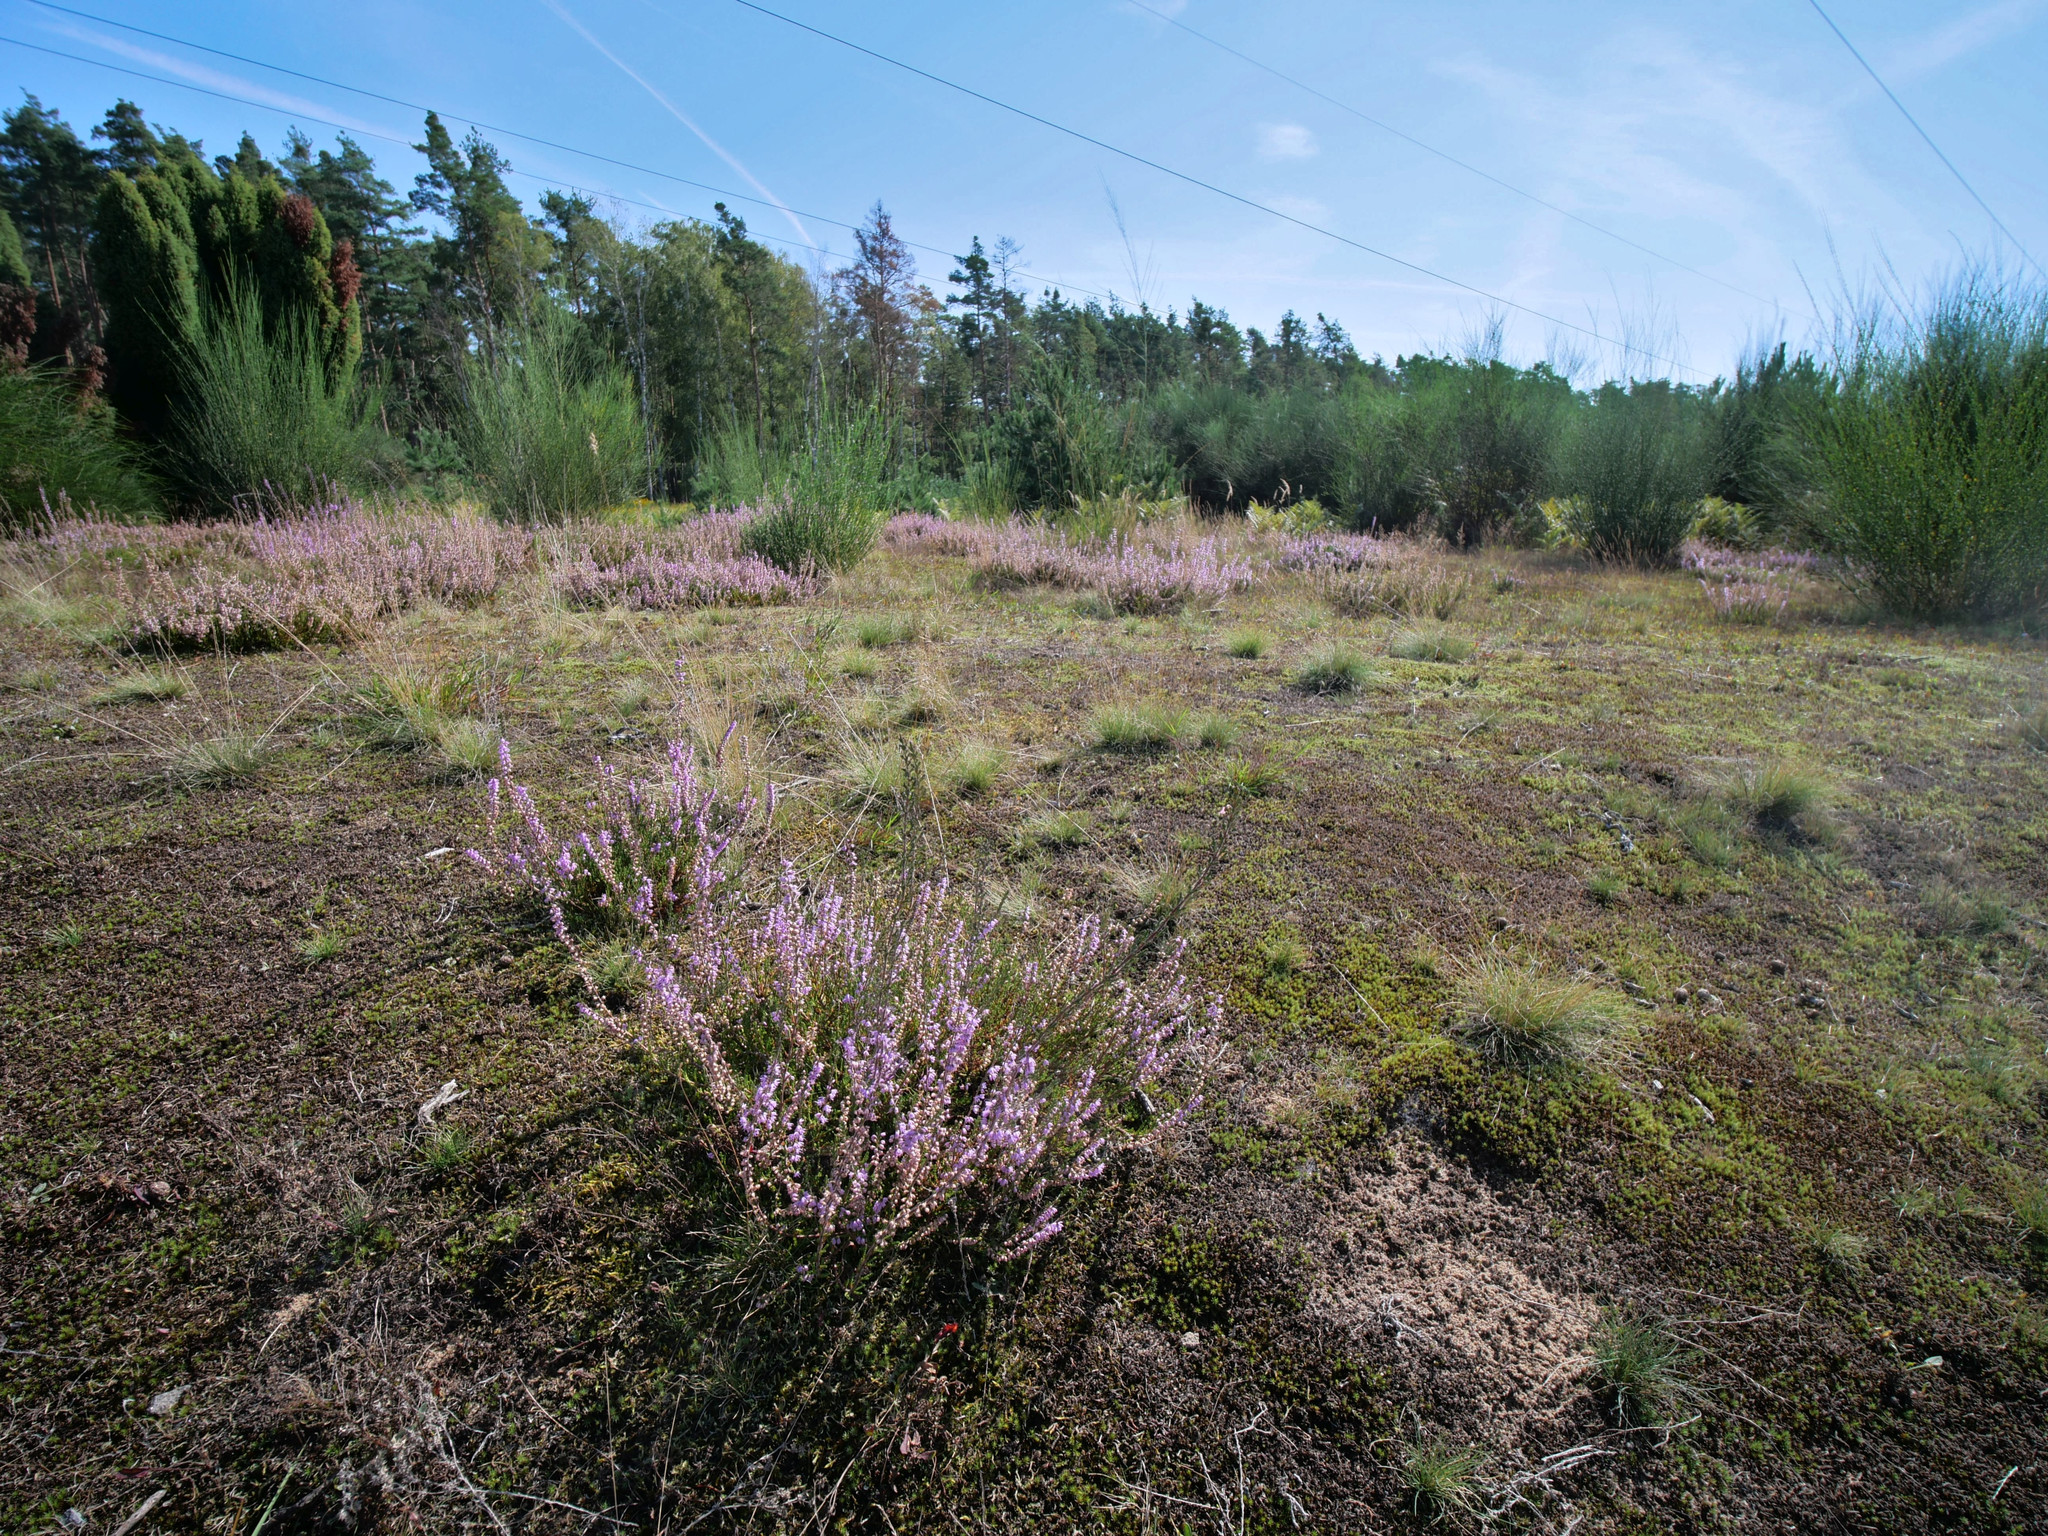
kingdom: Plantae
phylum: Tracheophyta
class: Magnoliopsida
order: Ericales
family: Ericaceae
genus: Calluna
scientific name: Calluna vulgaris
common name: Heather
